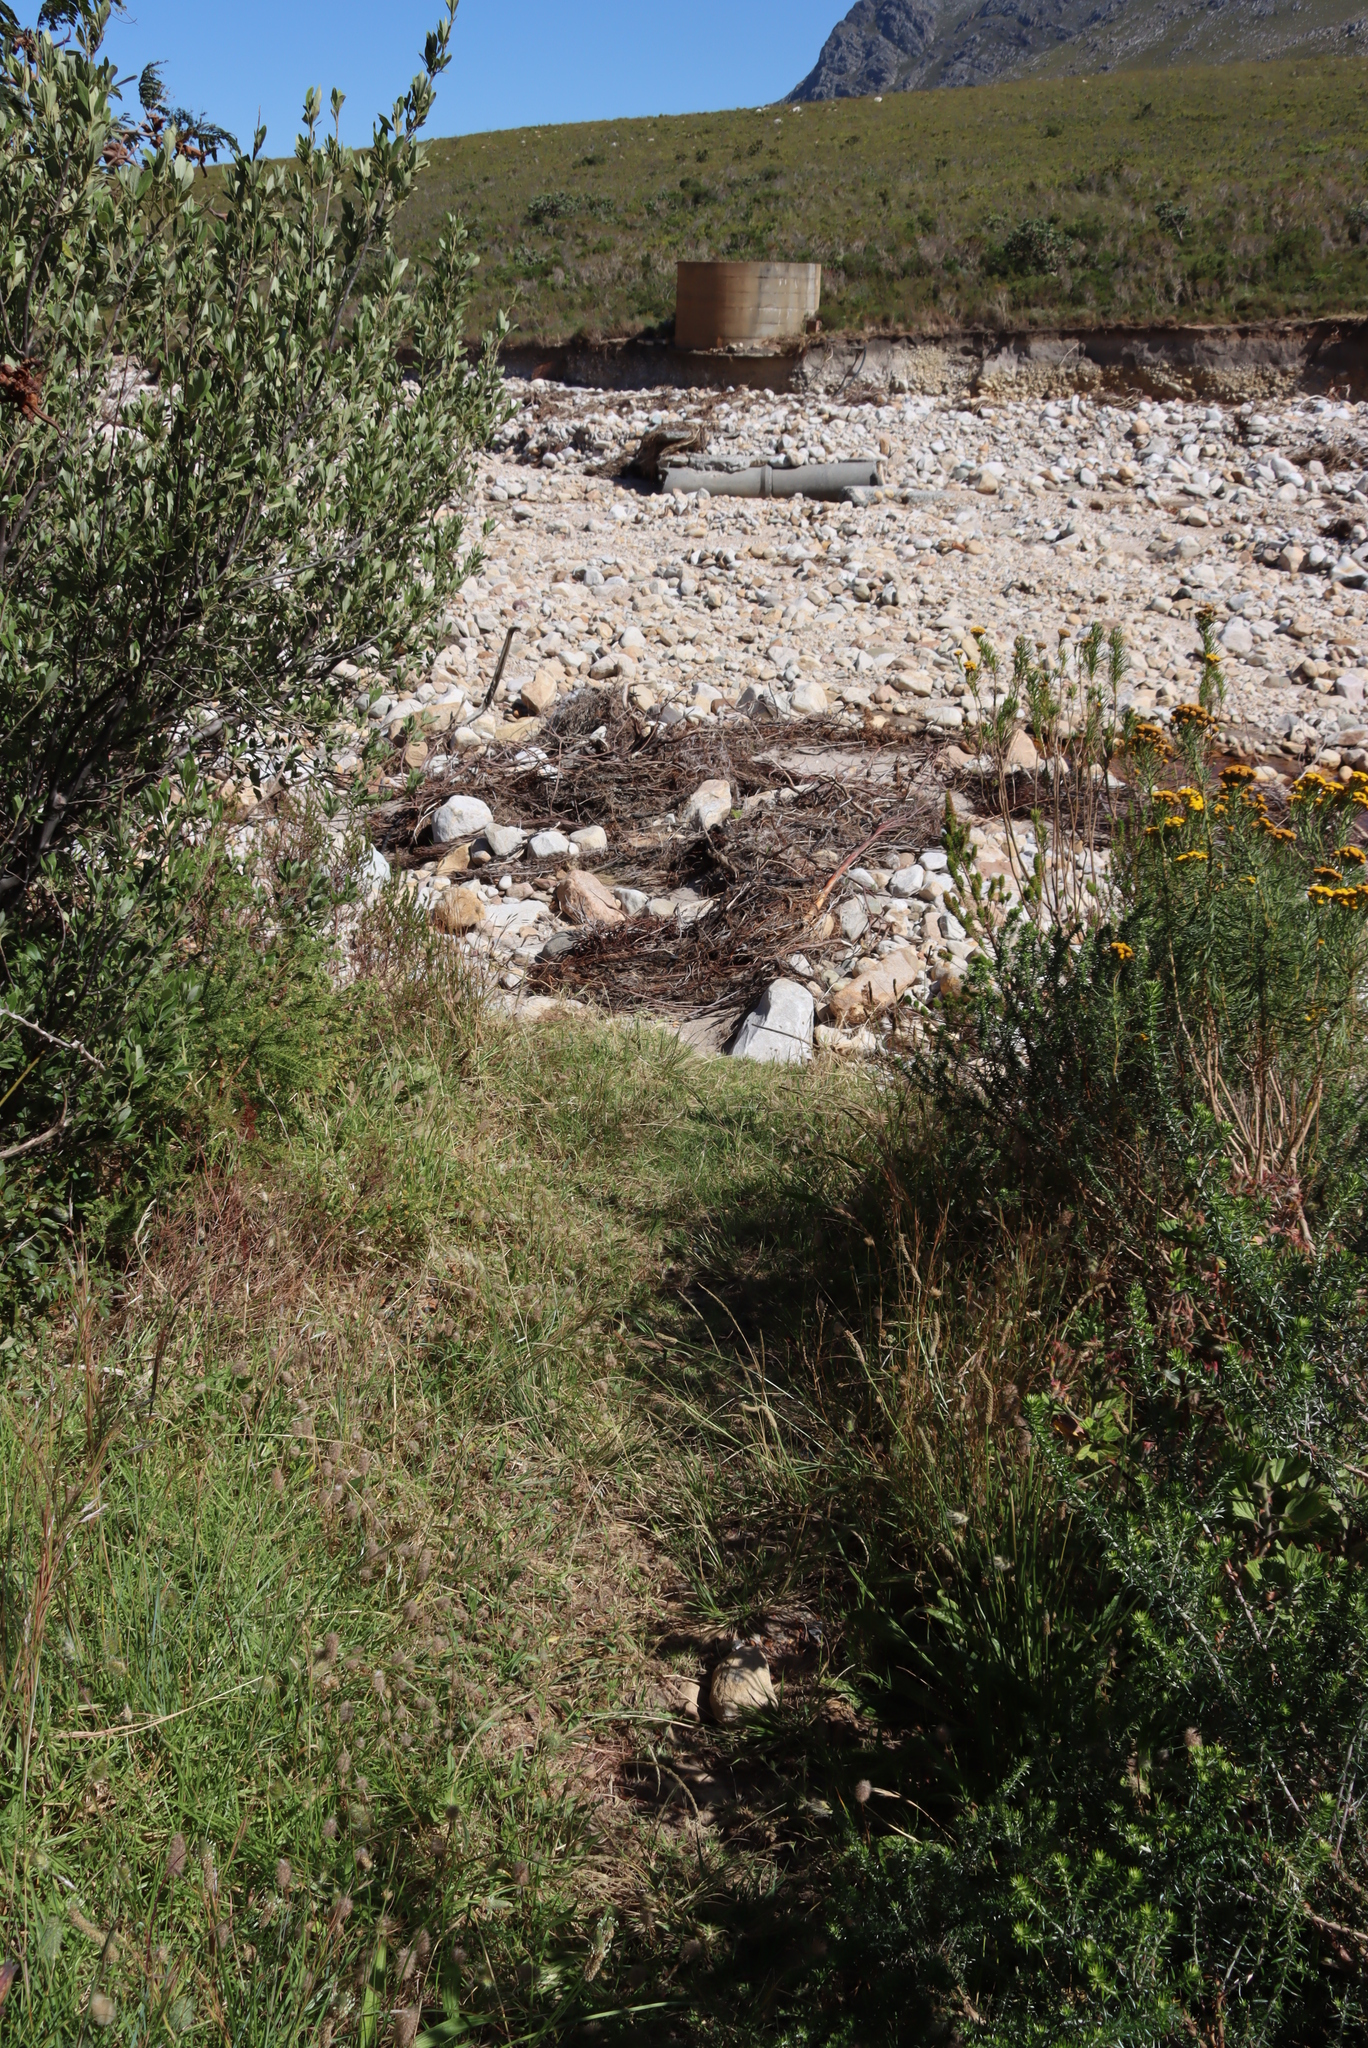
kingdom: Plantae
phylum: Tracheophyta
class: Magnoliopsida
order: Fabales
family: Fabaceae
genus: Trifolium
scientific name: Trifolium angustifolium
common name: Narrow clover
